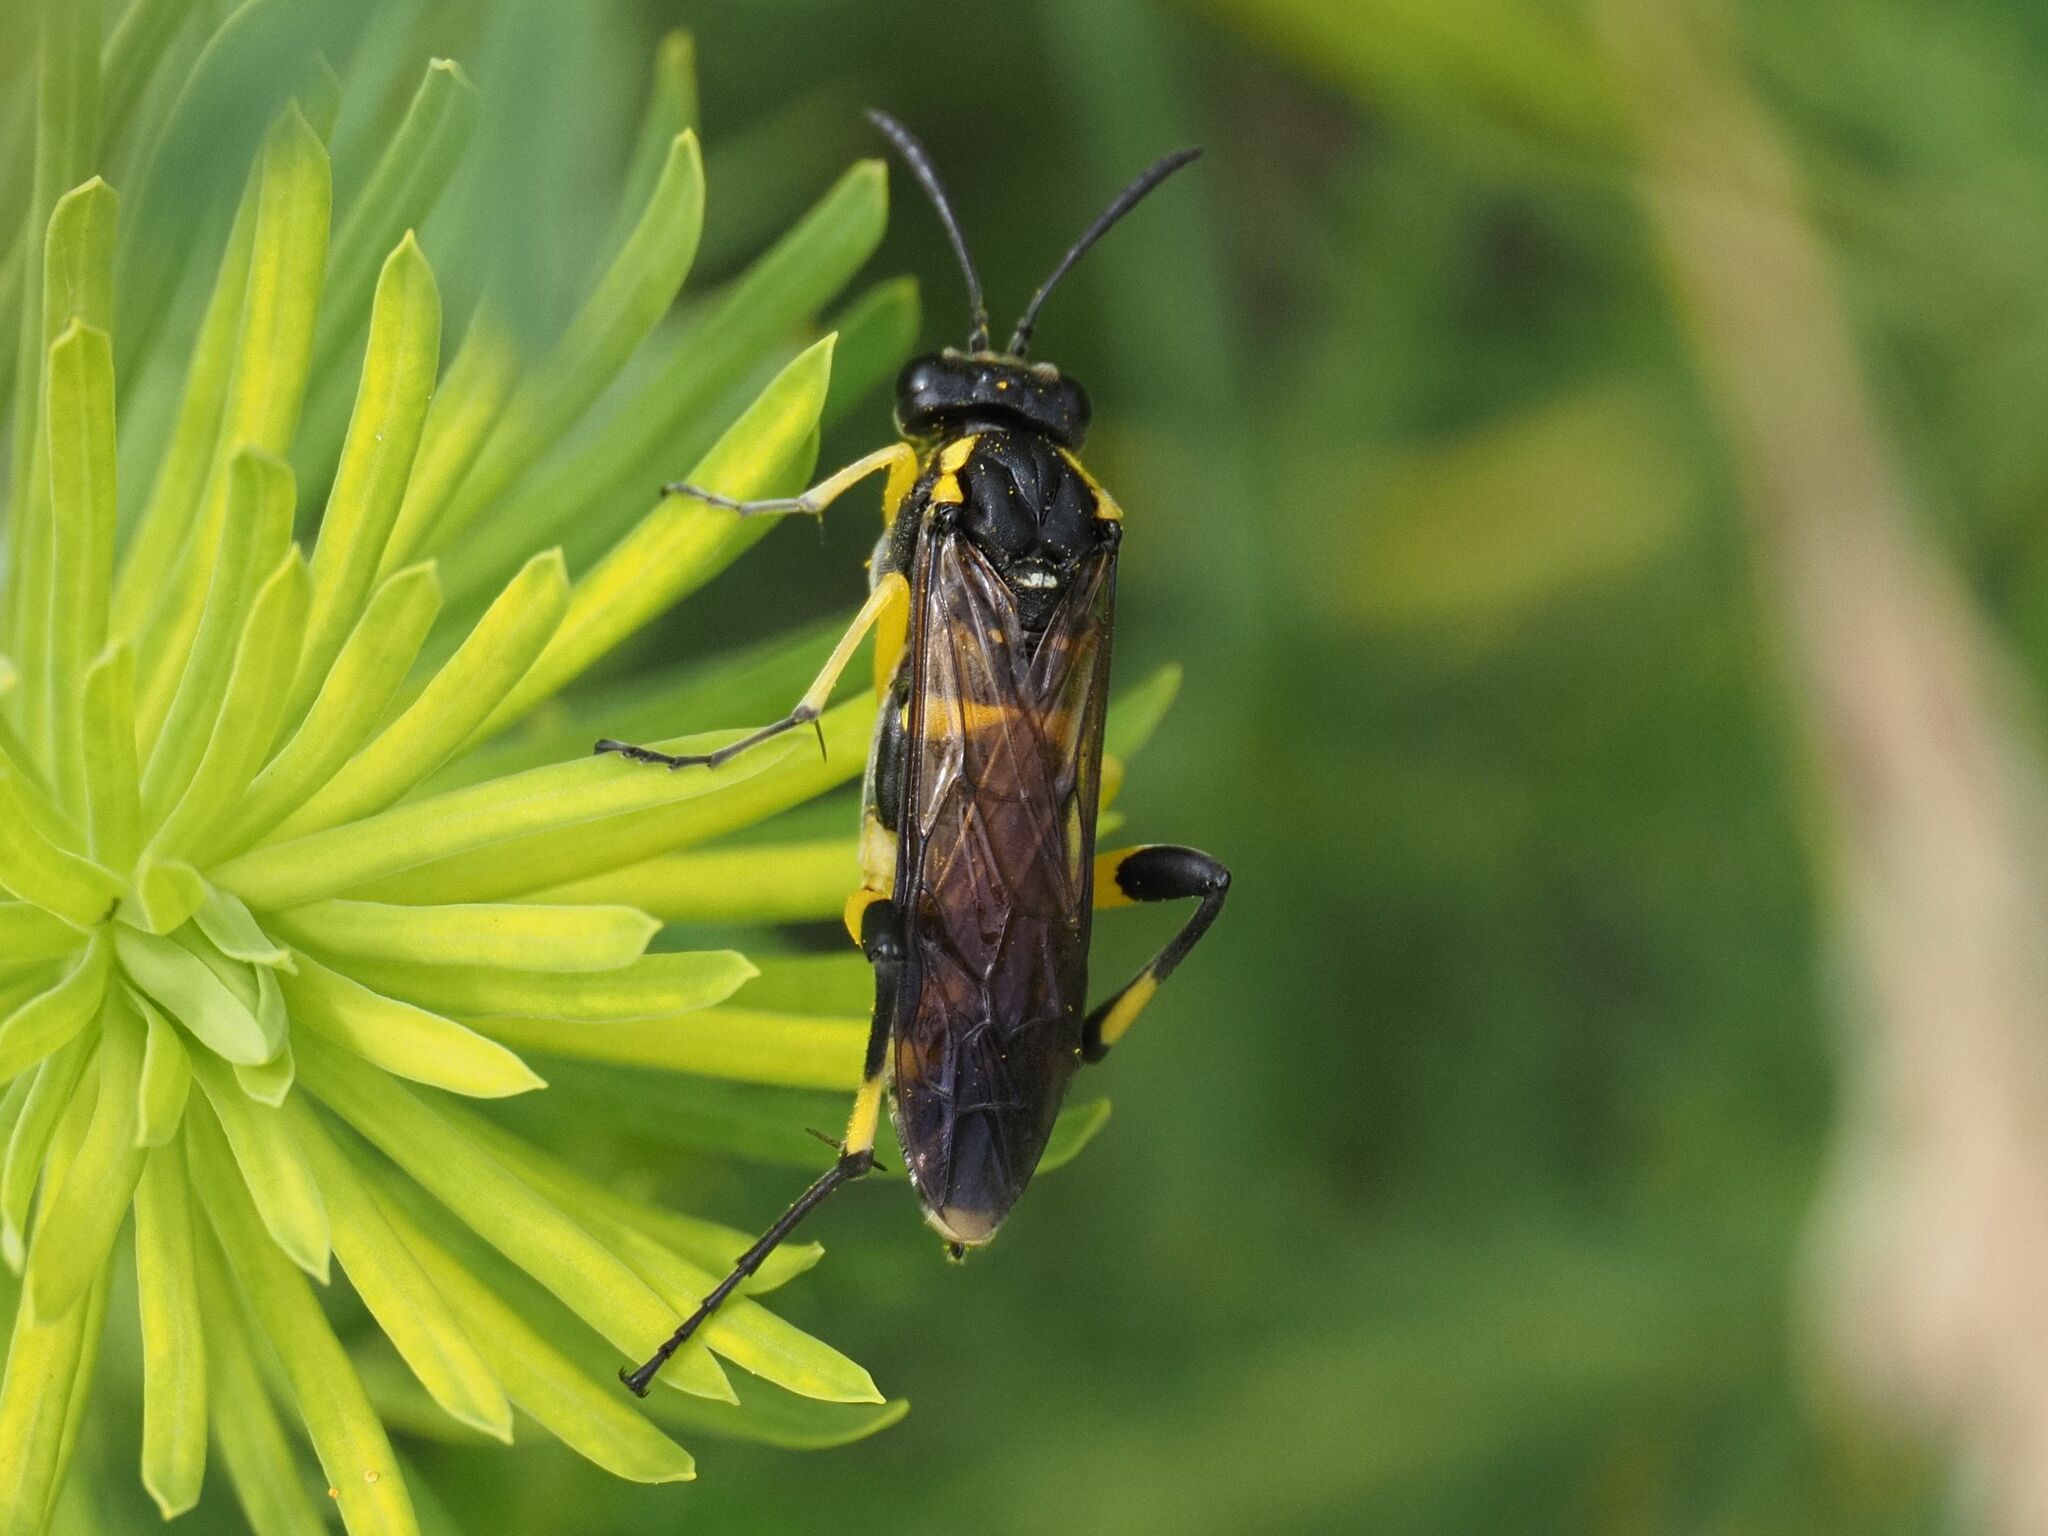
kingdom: Animalia
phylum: Arthropoda
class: Insecta
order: Hymenoptera
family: Tenthredinidae
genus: Macrophya
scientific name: Macrophya montana
